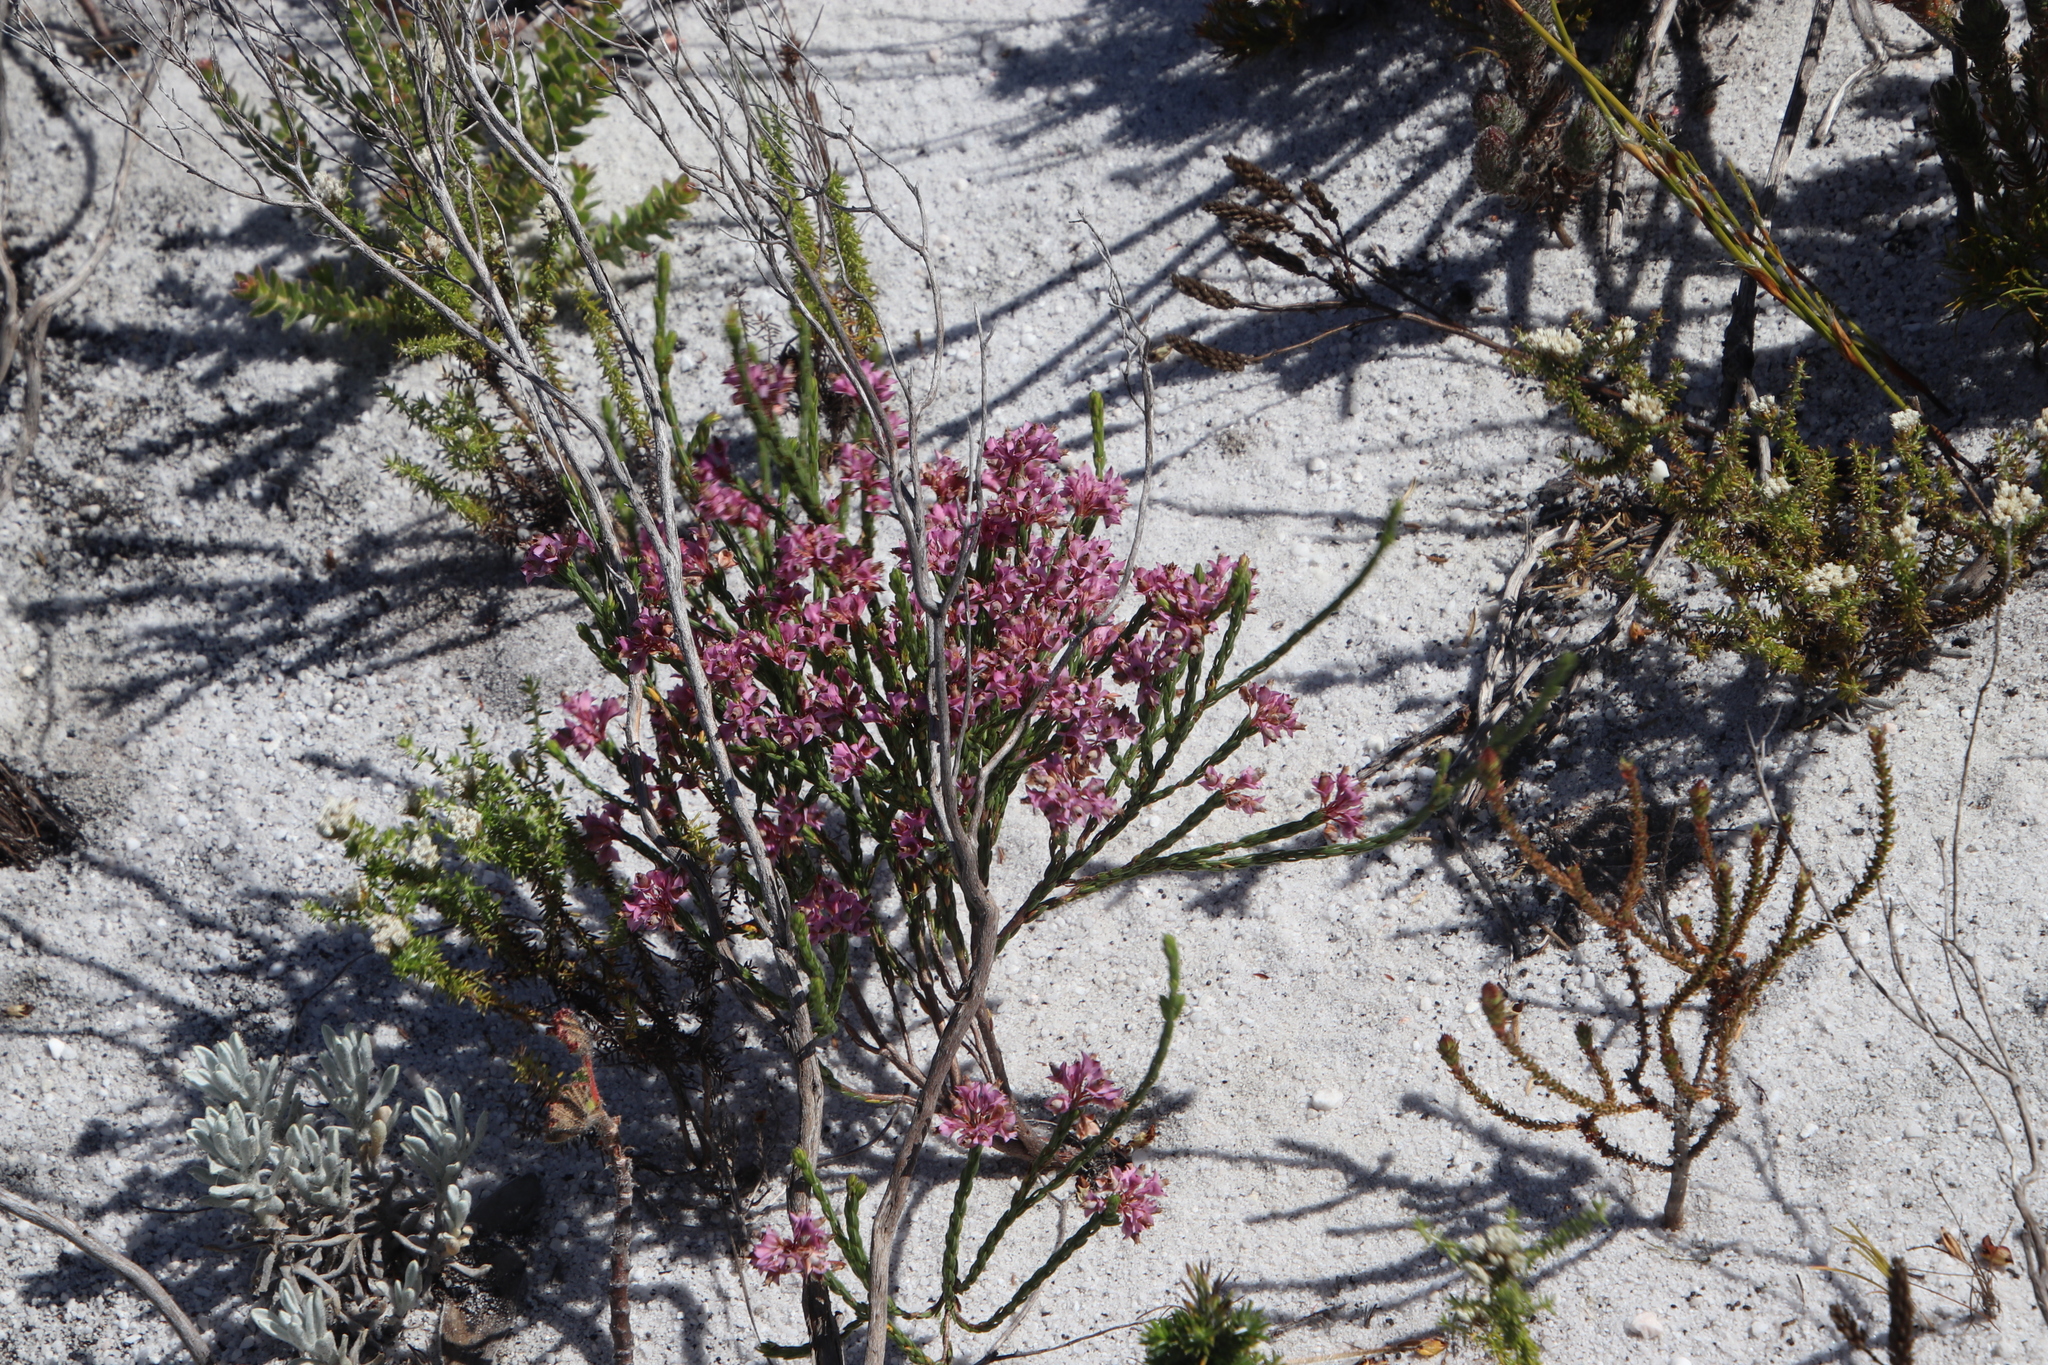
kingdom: Plantae
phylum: Tracheophyta
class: Magnoliopsida
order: Ericales
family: Ericaceae
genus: Erica
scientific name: Erica corifolia
